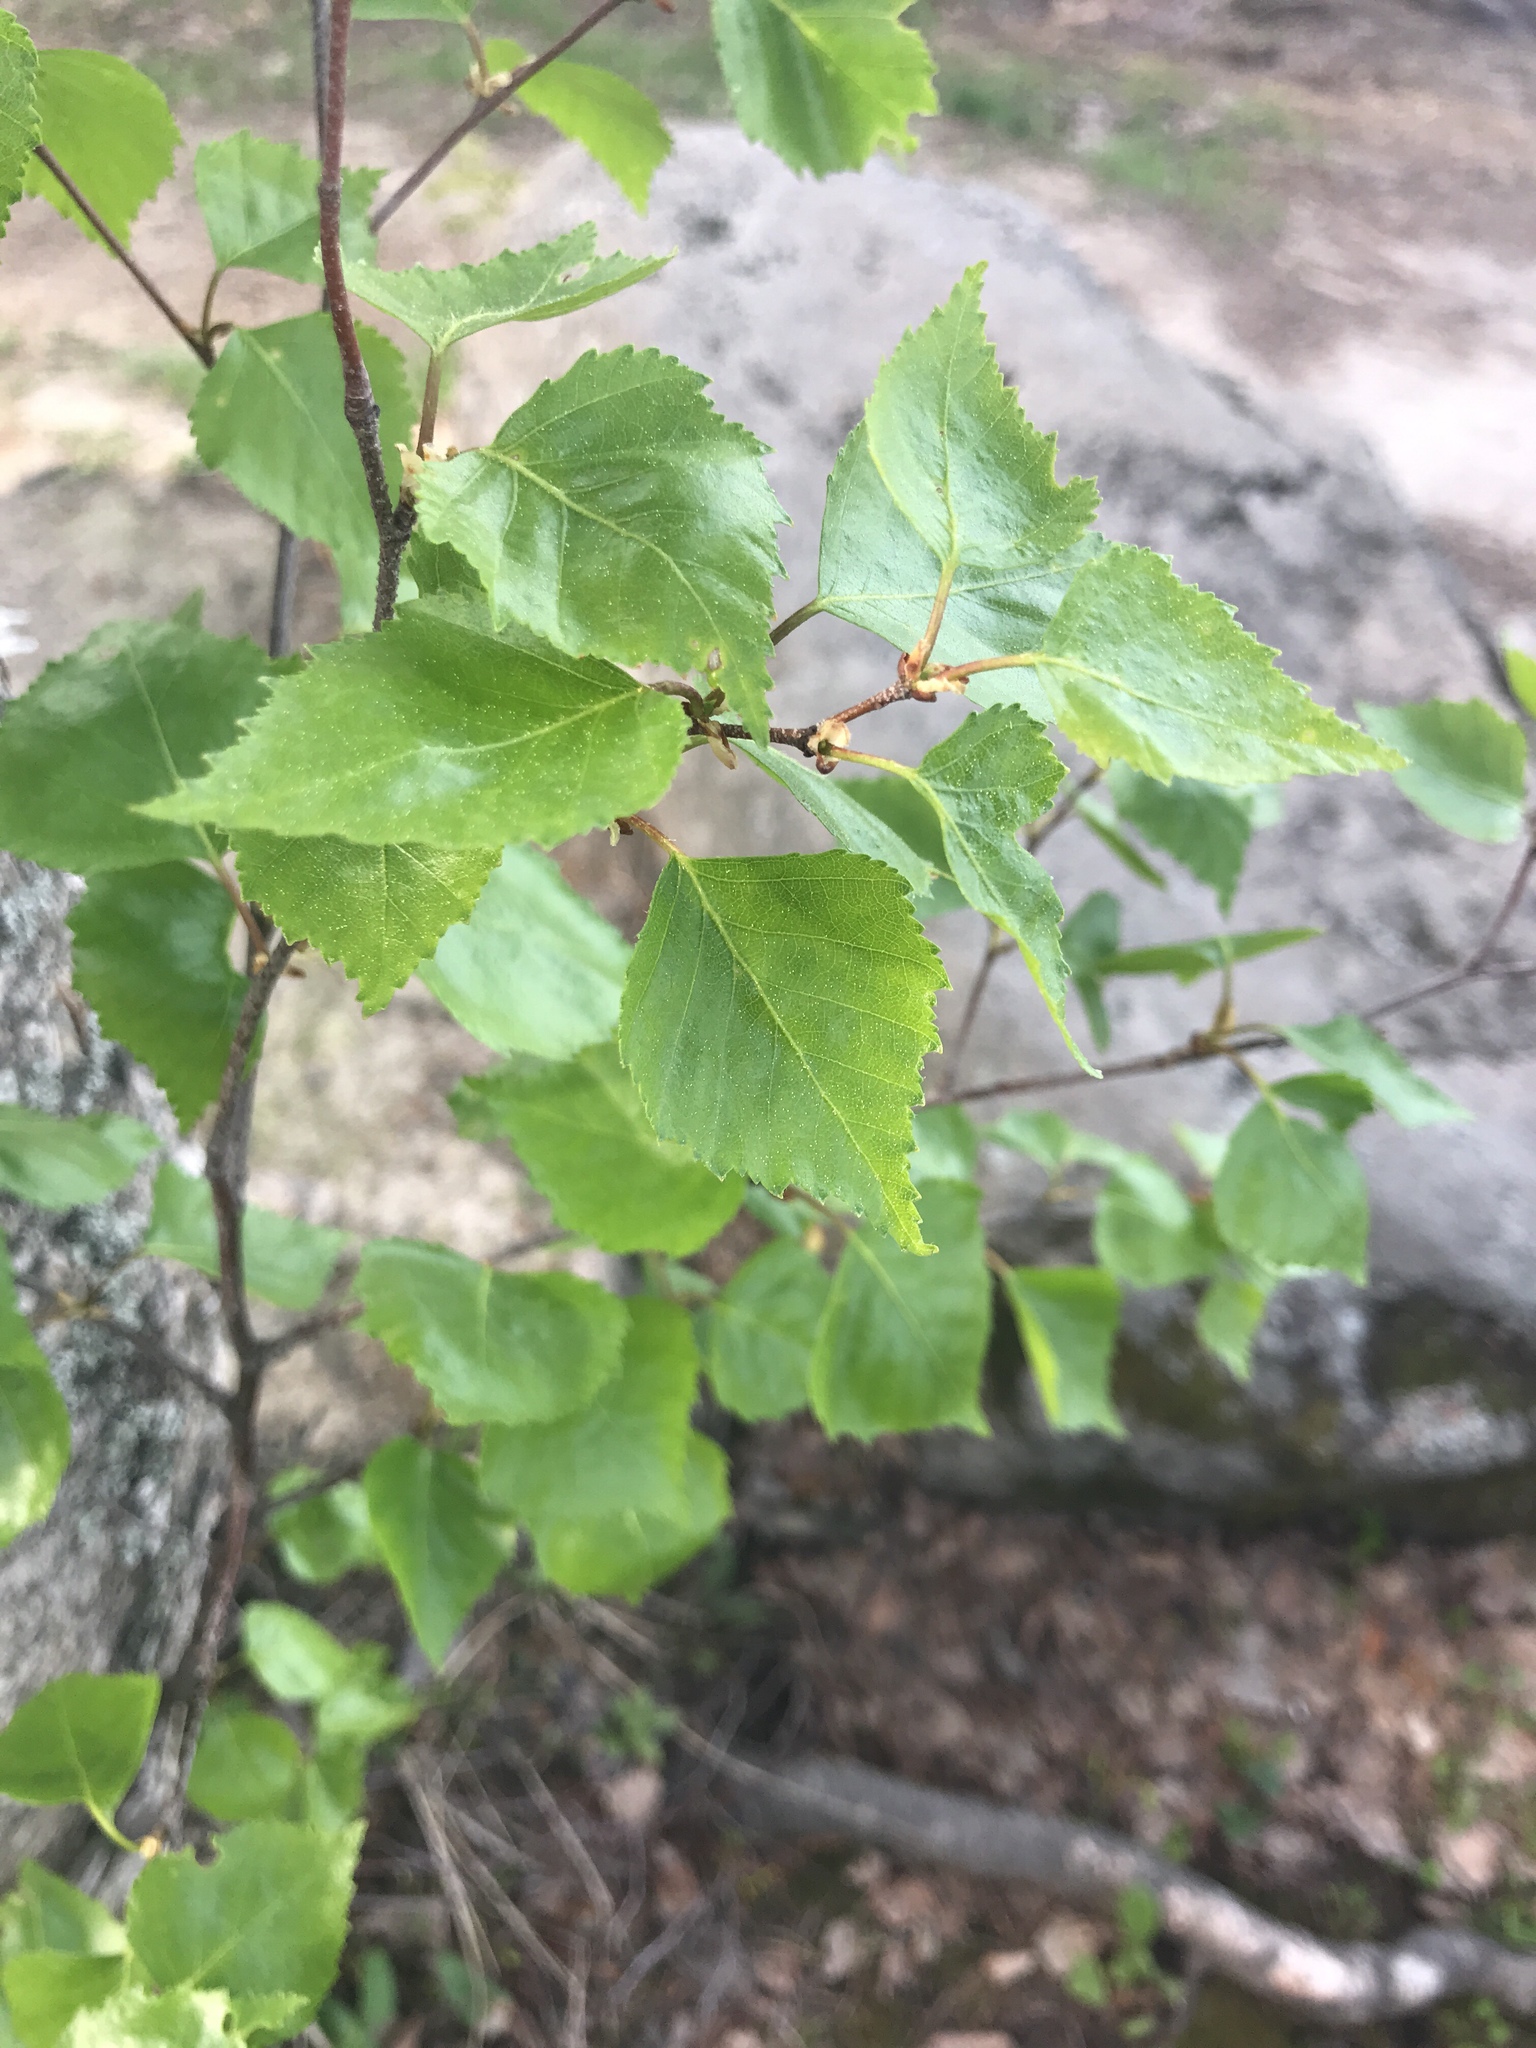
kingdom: Plantae
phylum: Tracheophyta
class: Magnoliopsida
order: Fagales
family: Betulaceae
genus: Betula
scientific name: Betula pendula
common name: Silver birch
